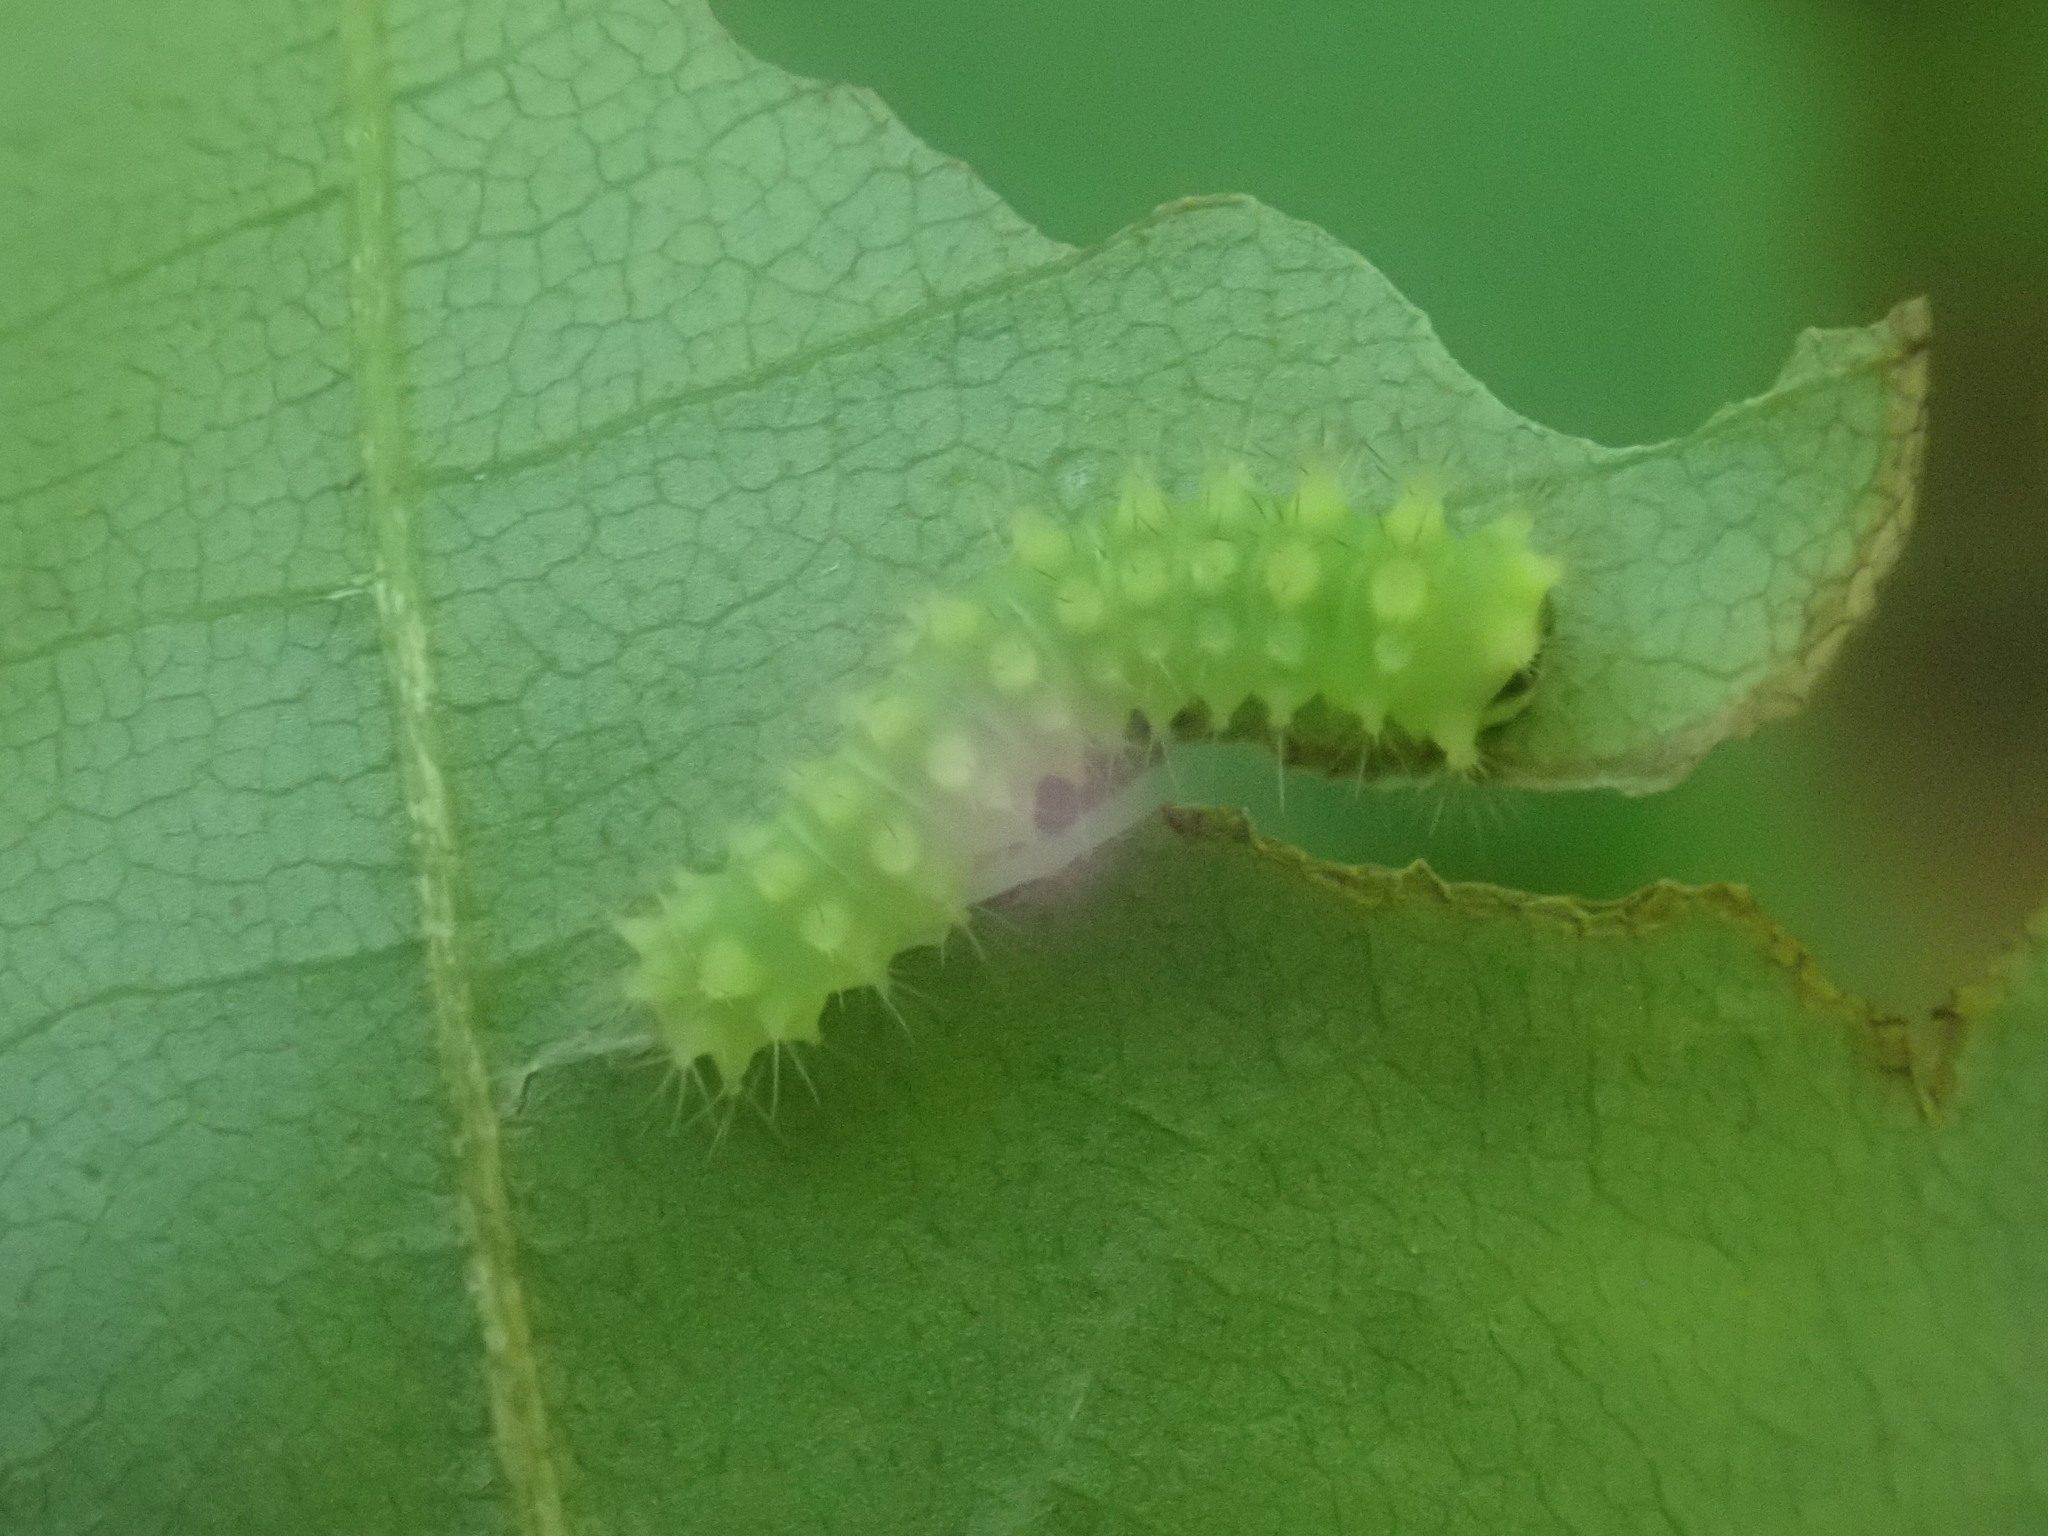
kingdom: Animalia
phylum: Arthropoda
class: Insecta
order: Lepidoptera
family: Saturniidae
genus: Actias
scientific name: Actias luna
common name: Luna moth
